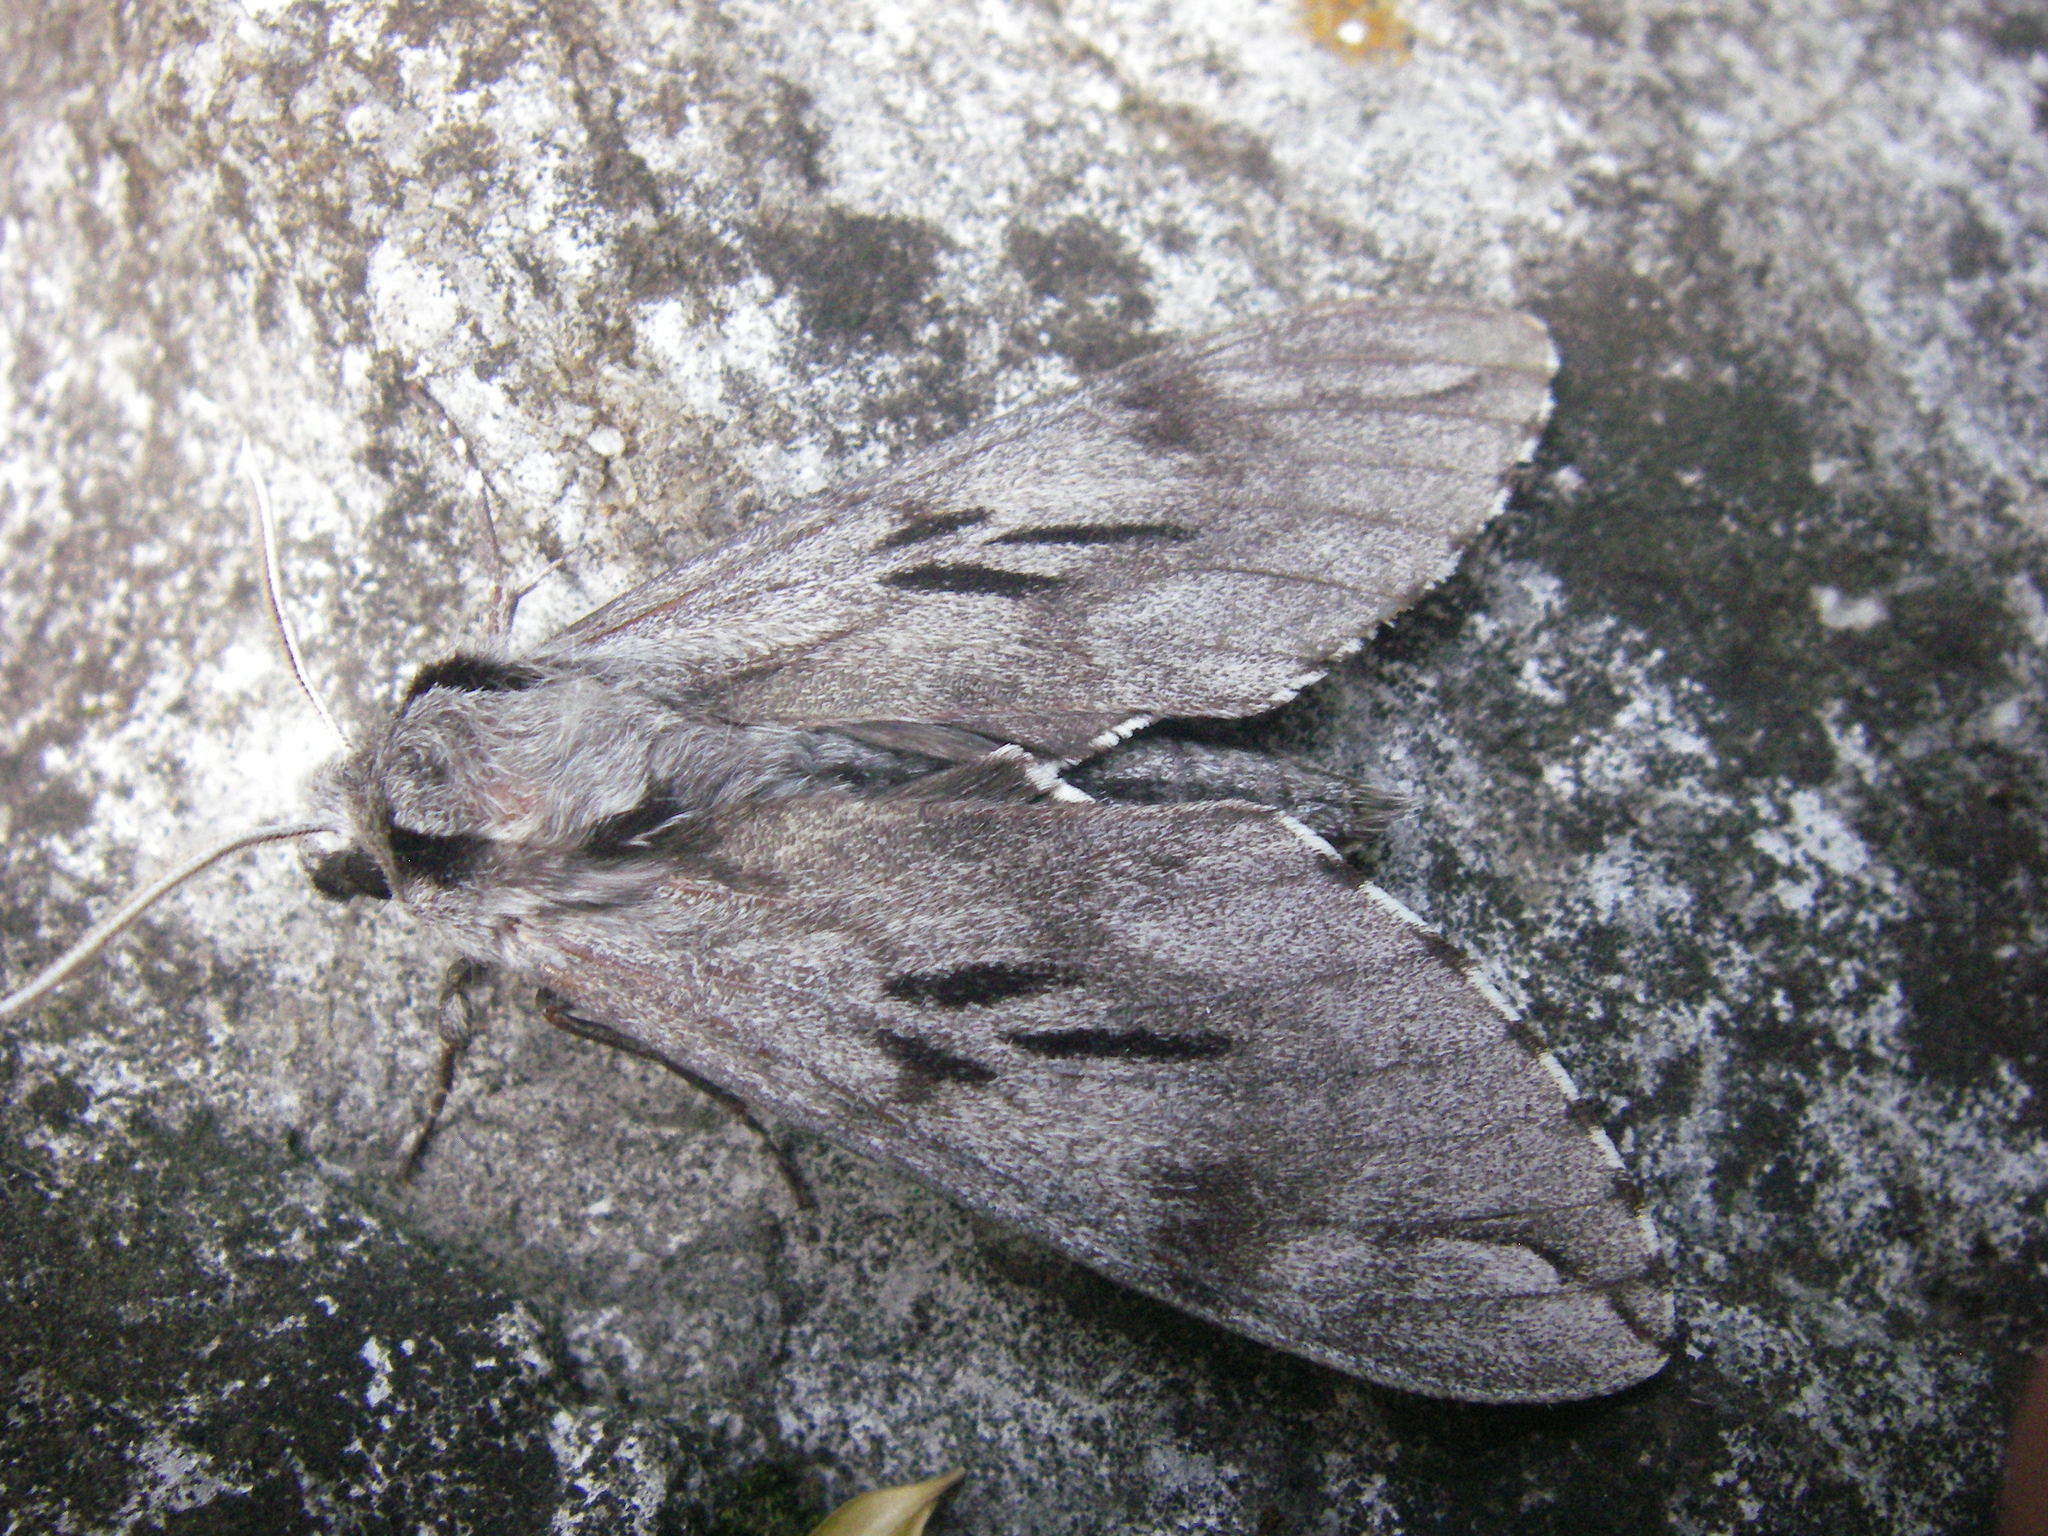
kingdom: Animalia
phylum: Arthropoda
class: Insecta
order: Lepidoptera
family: Sphingidae
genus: Sphinx
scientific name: Sphinx pinastri
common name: Pine hawk-moth
